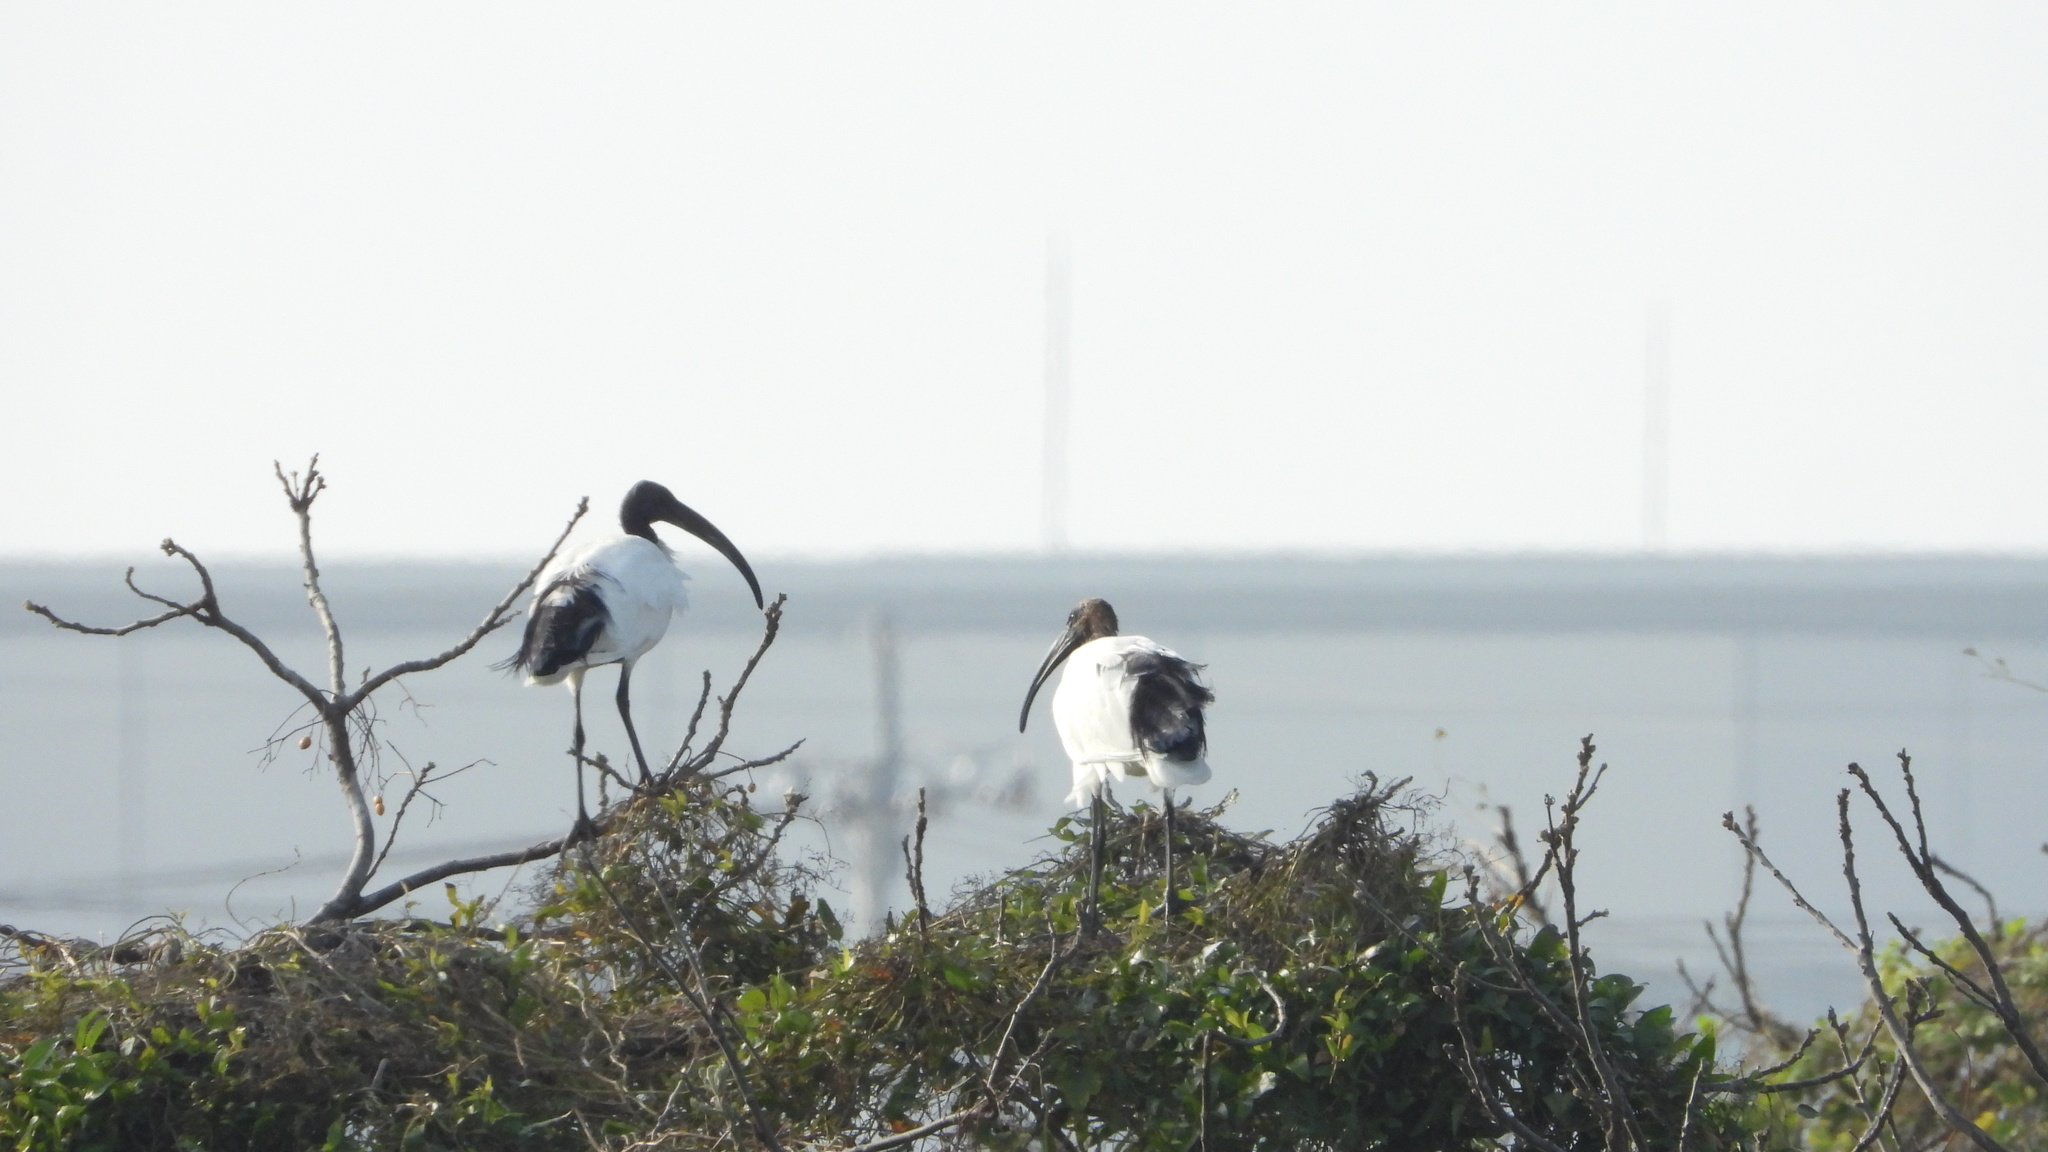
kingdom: Animalia
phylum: Chordata
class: Aves
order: Pelecaniformes
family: Threskiornithidae
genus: Threskiornis
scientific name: Threskiornis aethiopicus
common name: Sacred ibis
